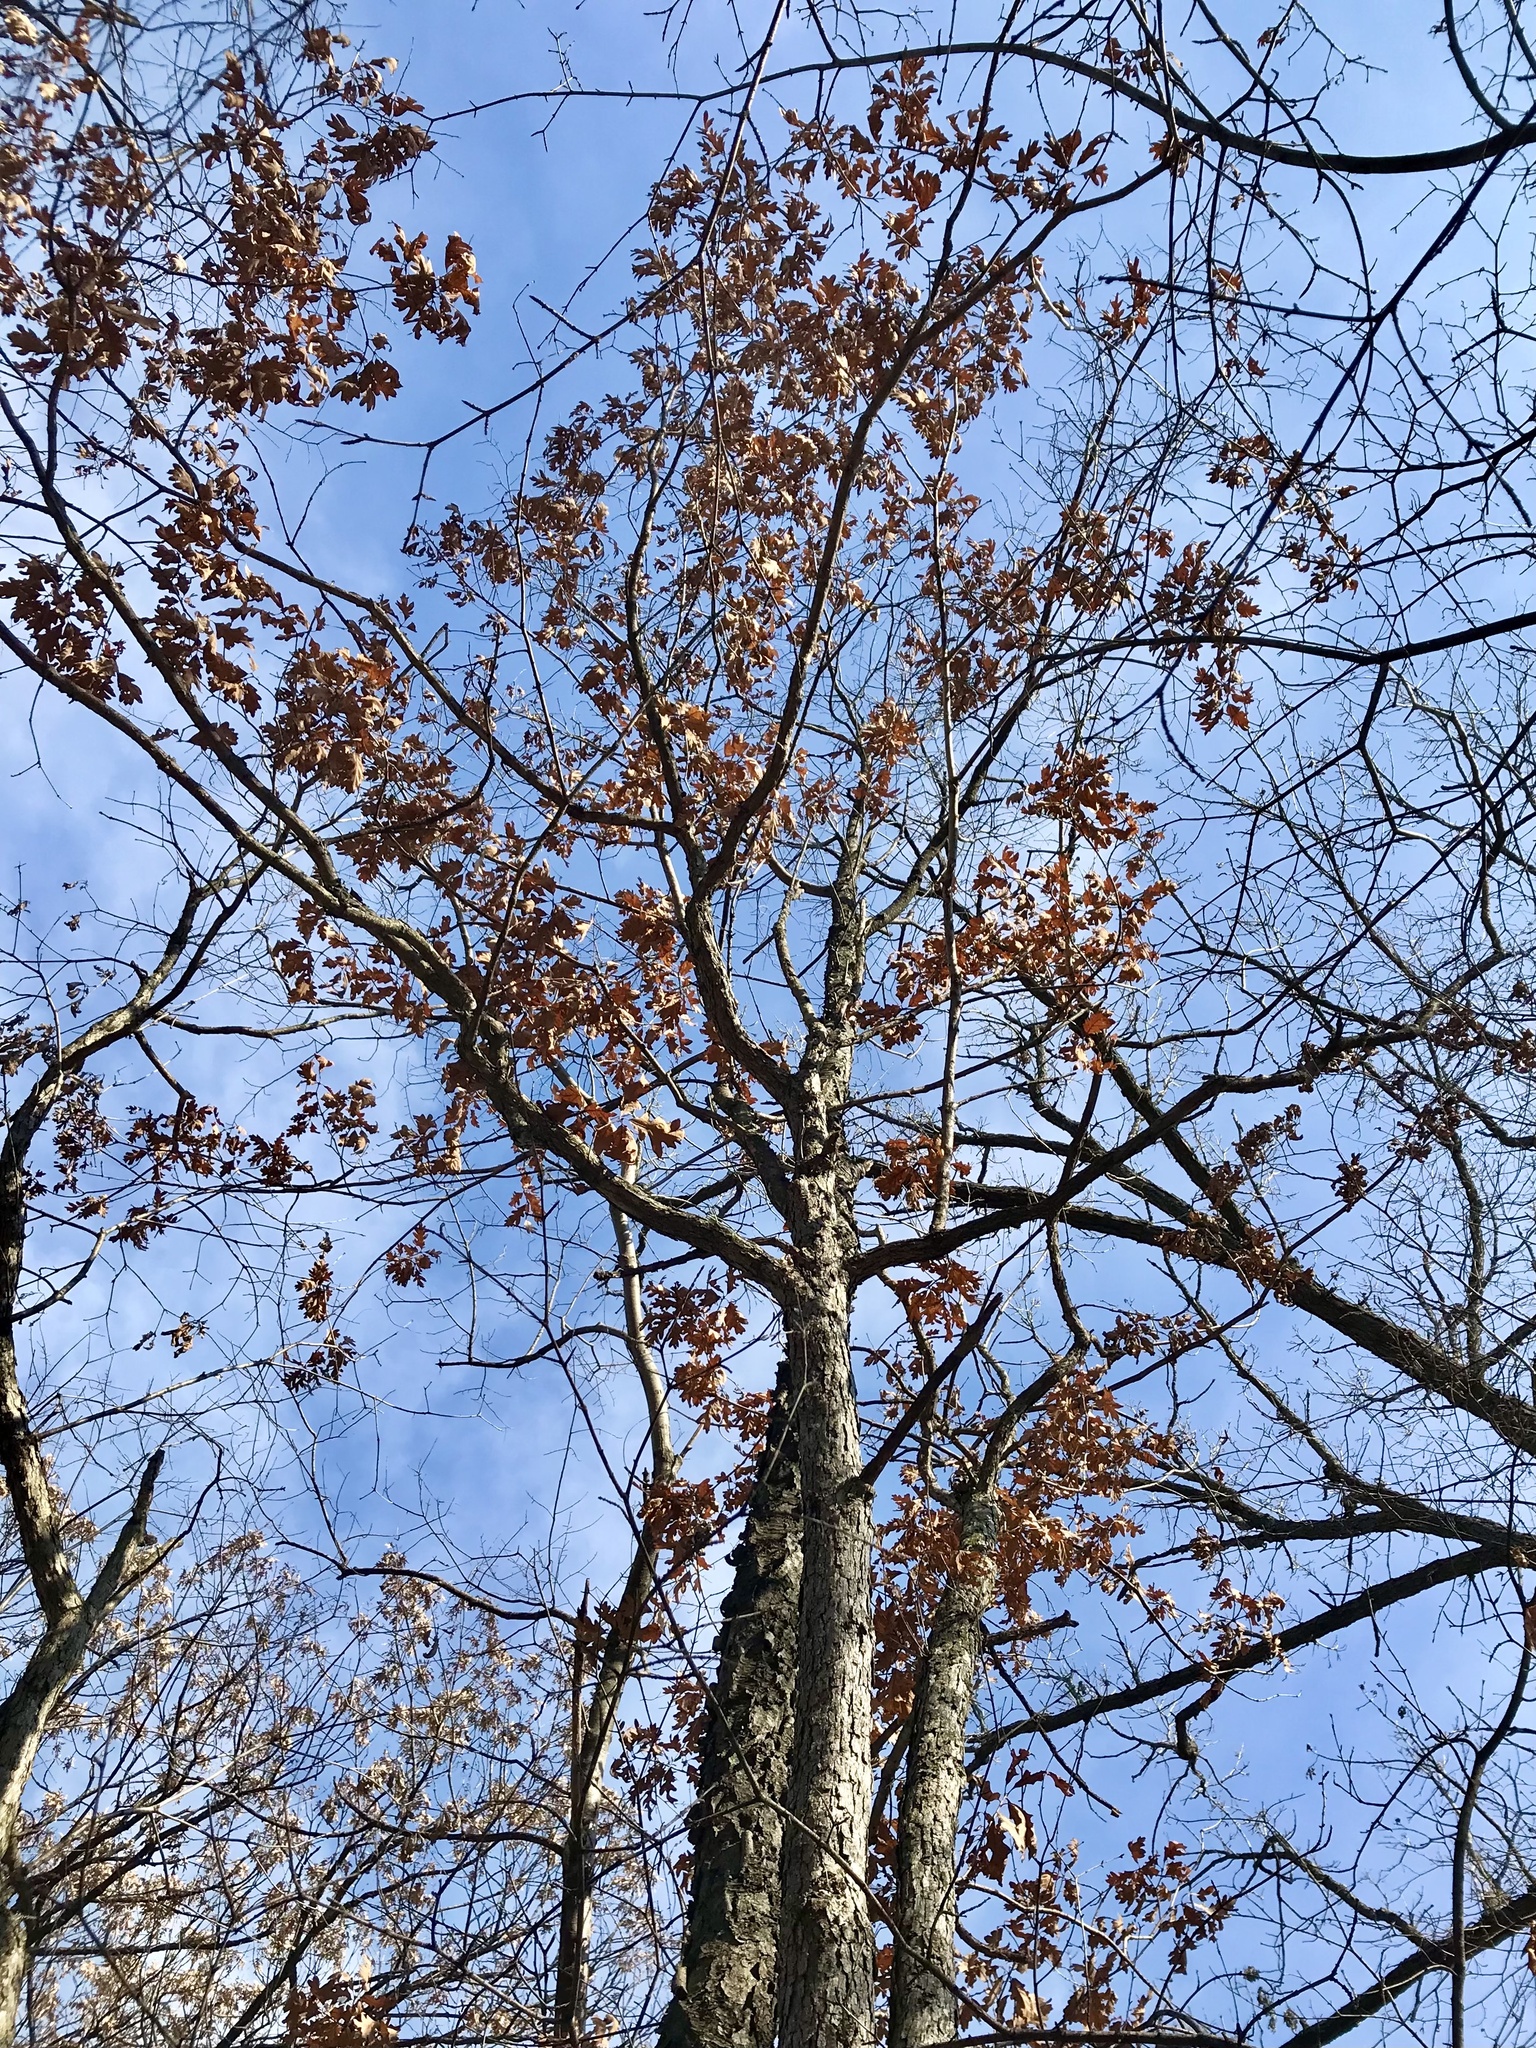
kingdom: Plantae
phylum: Tracheophyta
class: Magnoliopsida
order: Fagales
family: Fagaceae
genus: Quercus
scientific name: Quercus alba
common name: White oak
